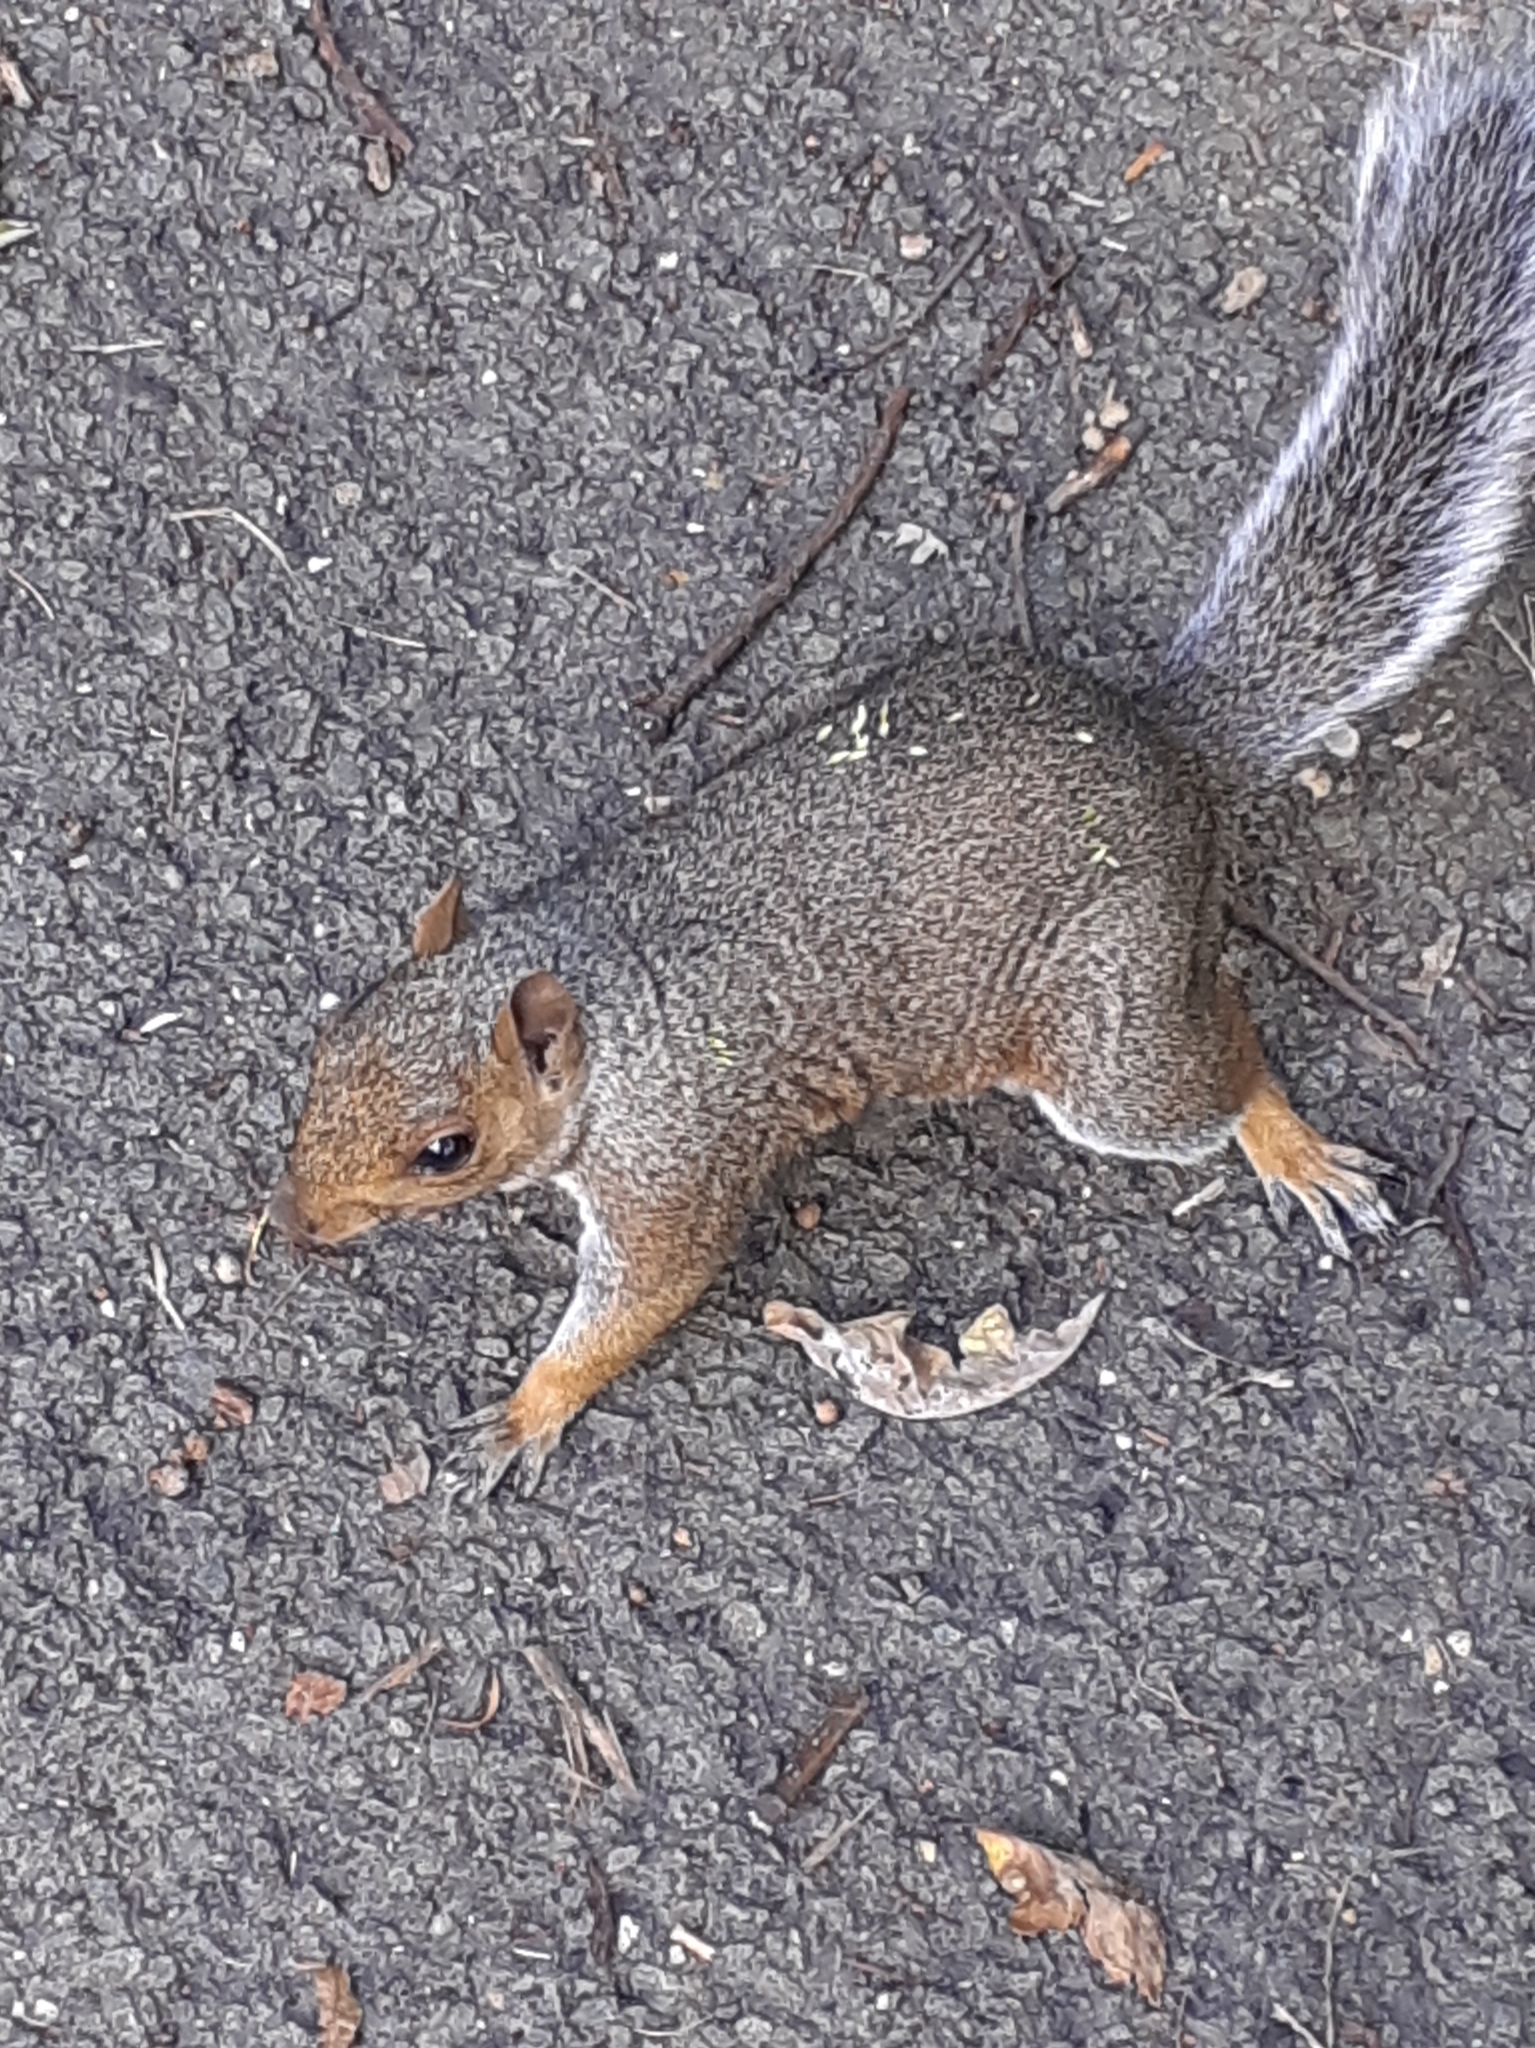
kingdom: Animalia
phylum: Chordata
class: Mammalia
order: Rodentia
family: Sciuridae
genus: Sciurus
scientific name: Sciurus carolinensis
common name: Eastern gray squirrel
